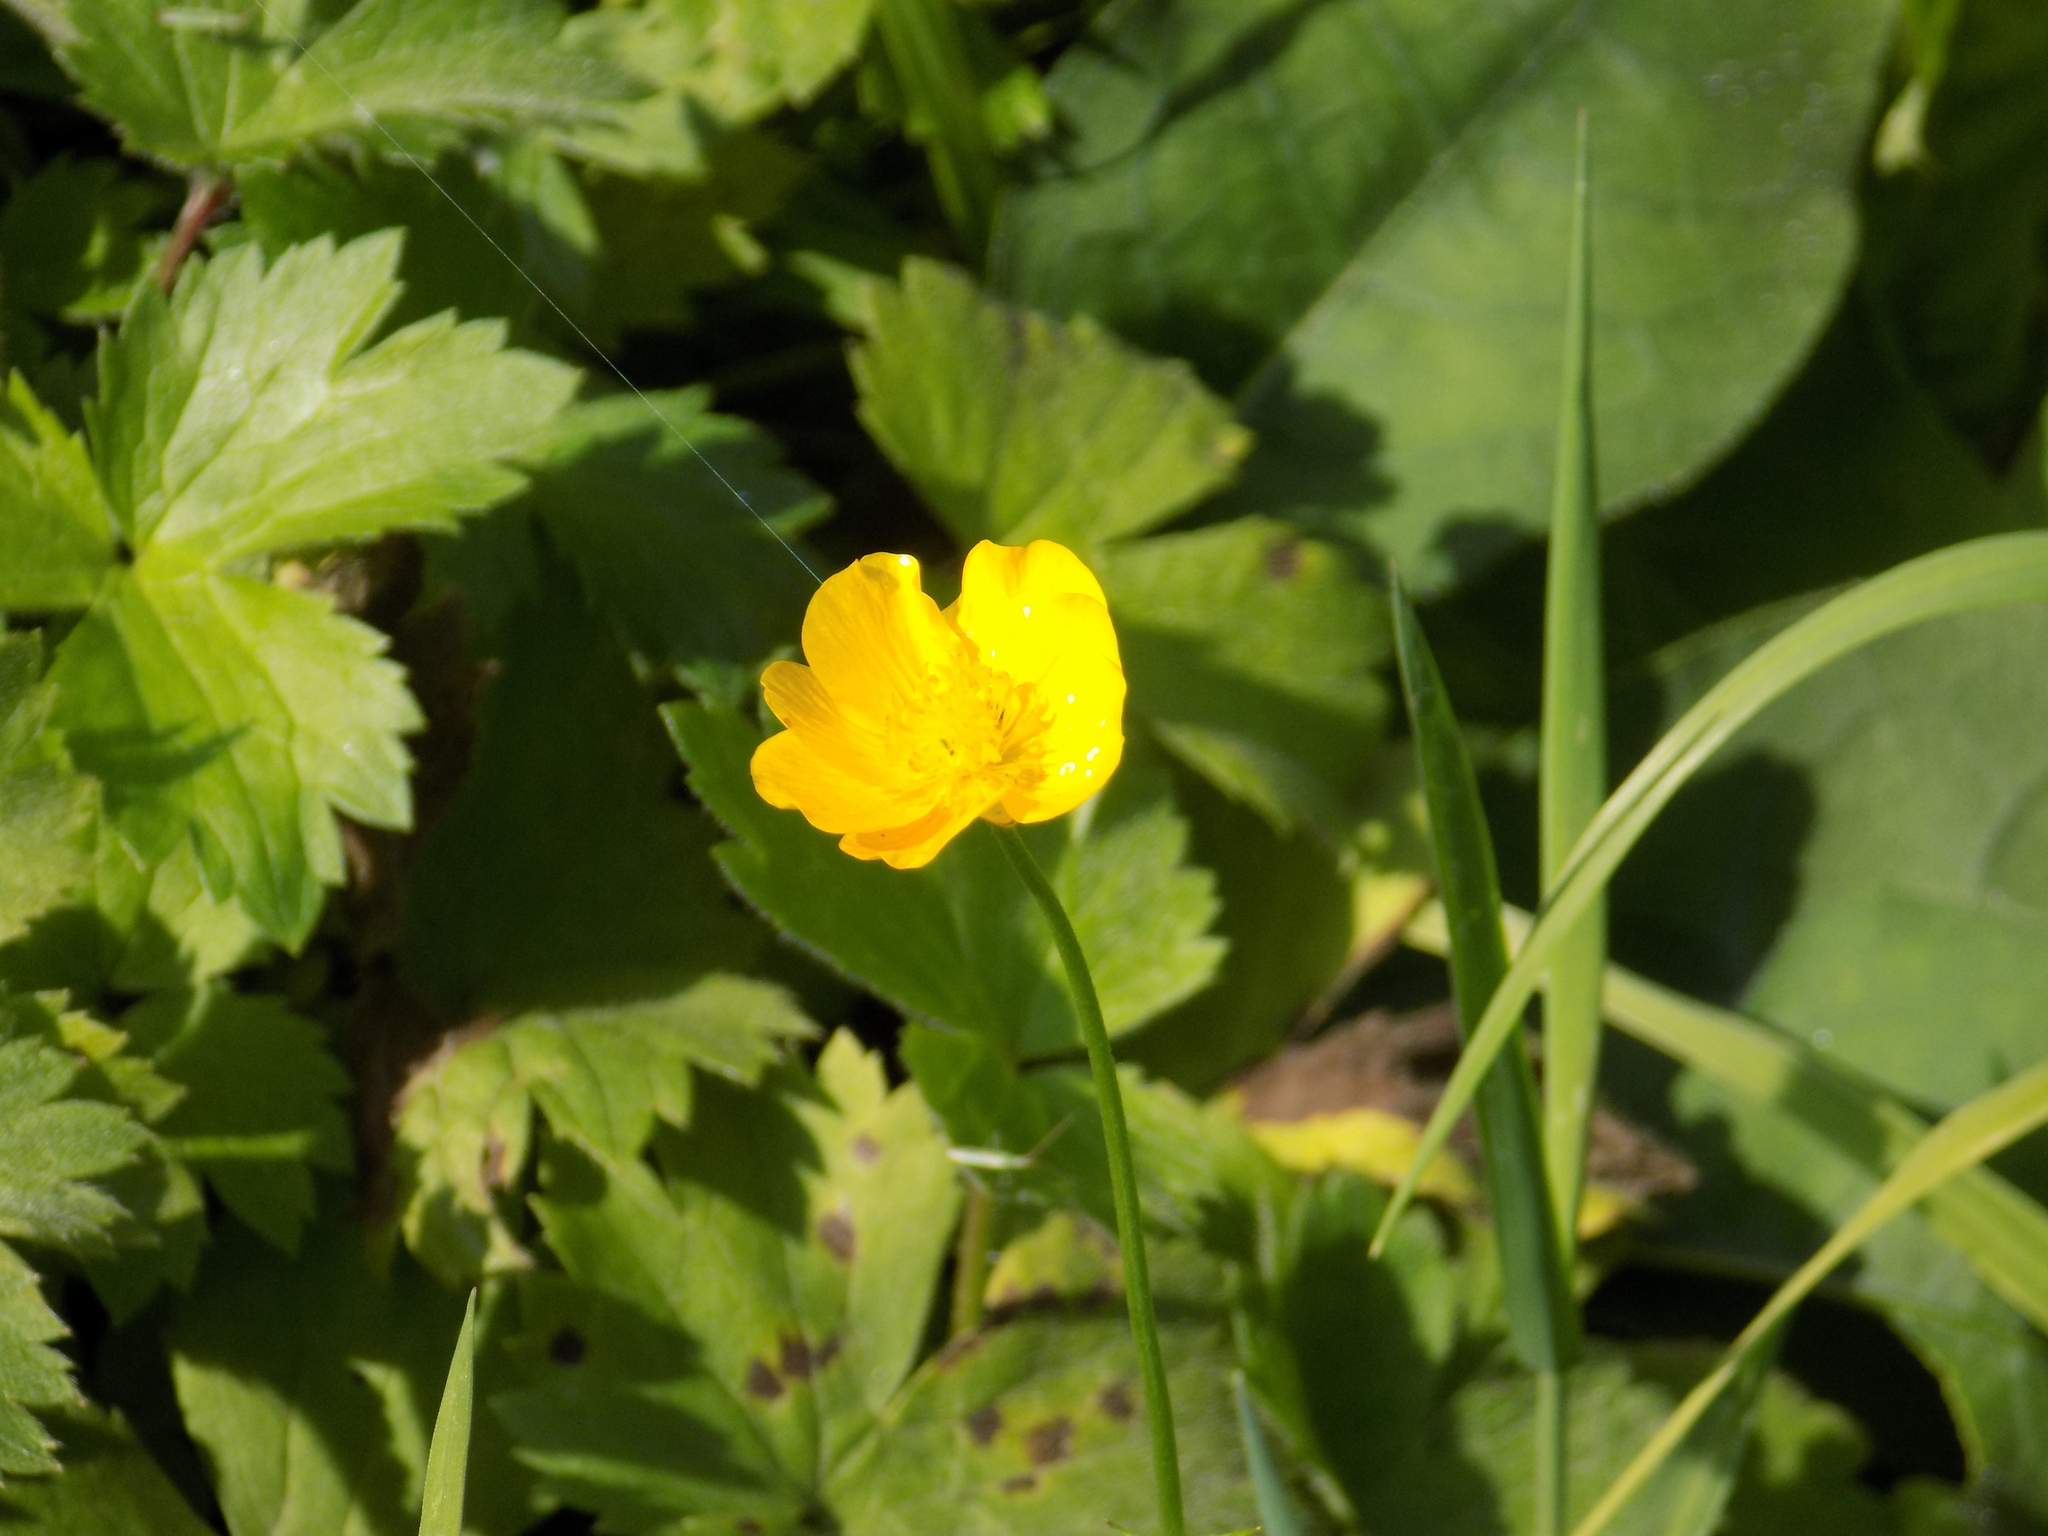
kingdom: Plantae
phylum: Tracheophyta
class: Magnoliopsida
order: Ranunculales
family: Ranunculaceae
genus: Ranunculus
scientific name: Ranunculus repens
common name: Creeping buttercup
